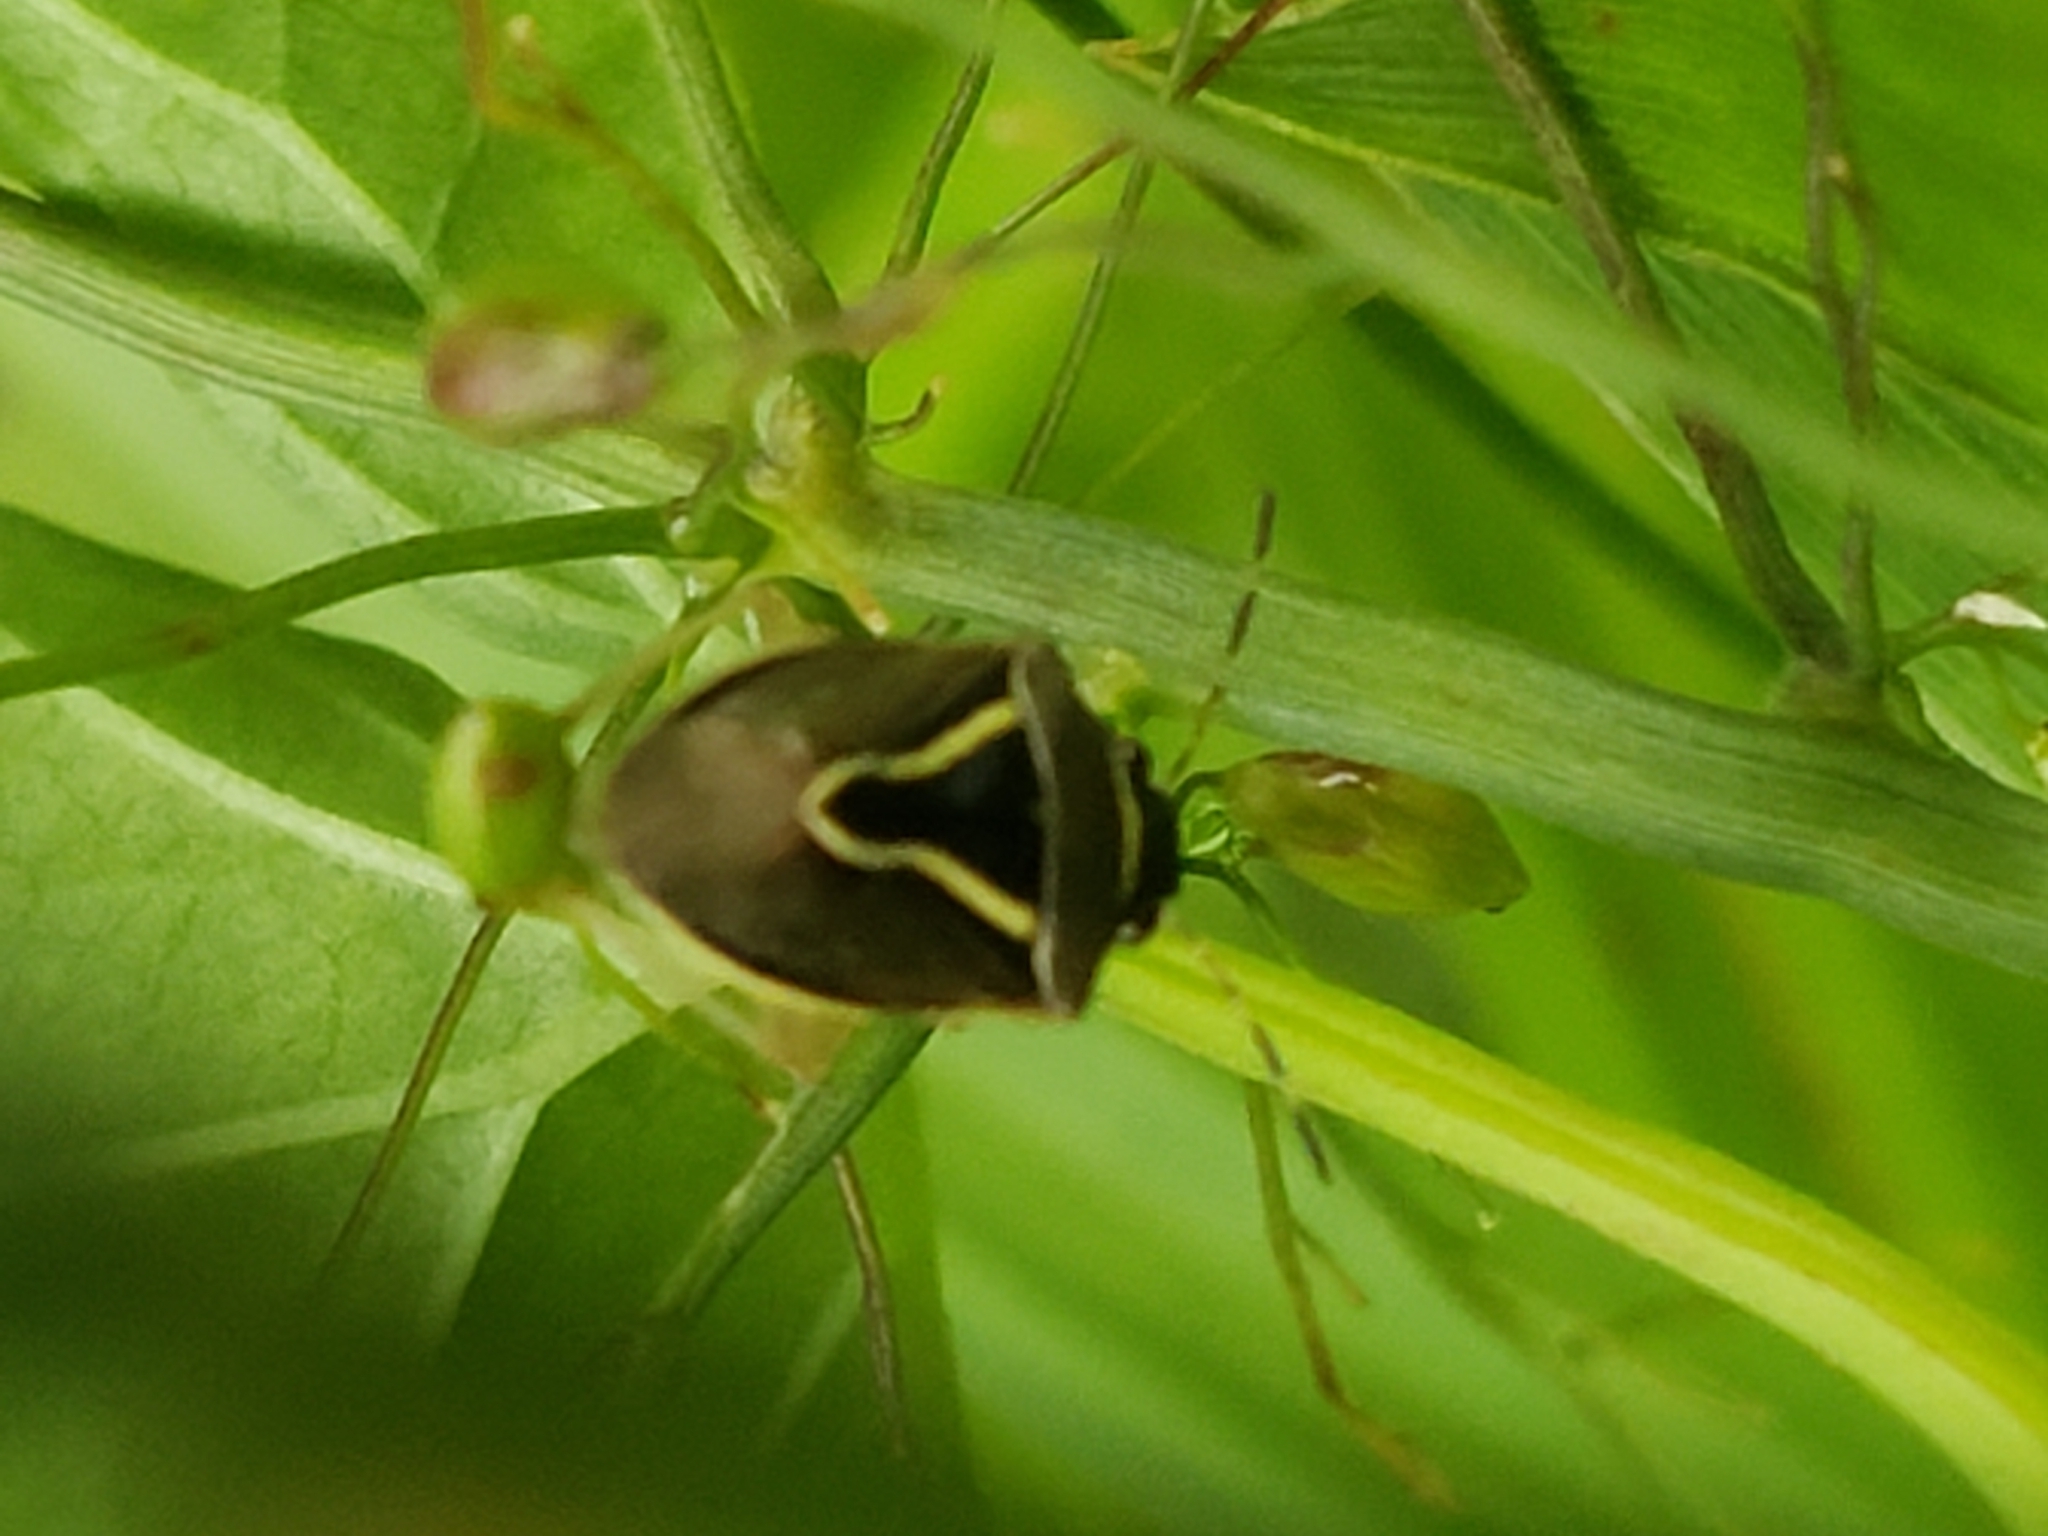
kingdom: Animalia
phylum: Arthropoda
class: Insecta
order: Hemiptera
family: Pentatomidae
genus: Mormidea
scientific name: Mormidea lugens
